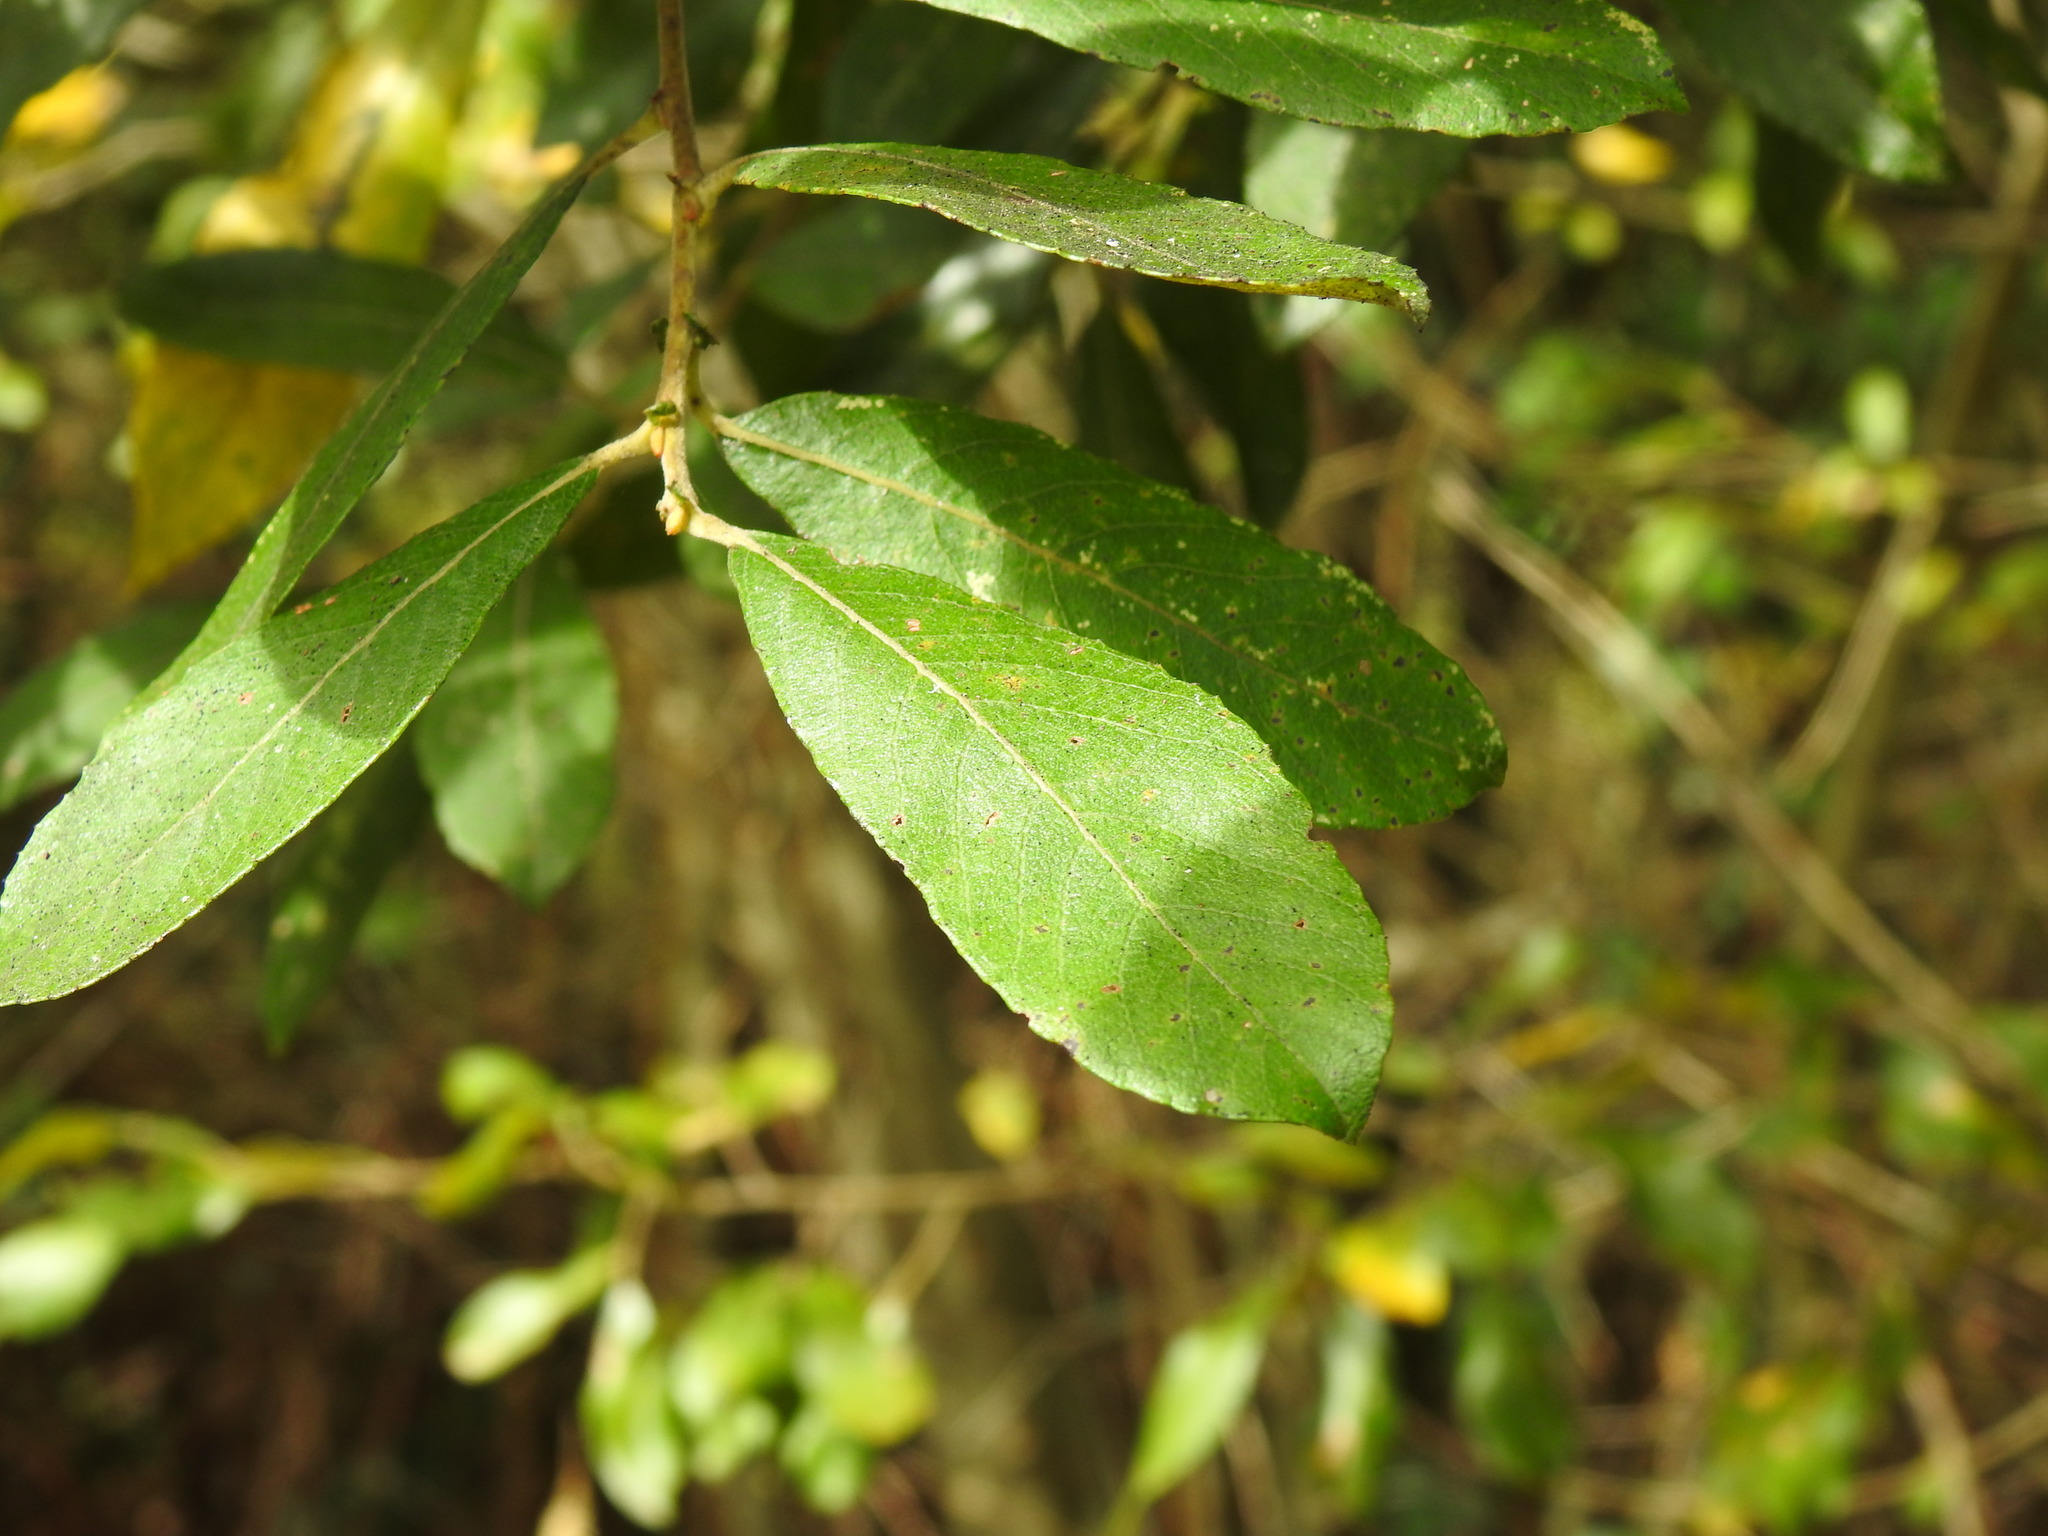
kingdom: Plantae
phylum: Tracheophyta
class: Magnoliopsida
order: Malpighiales
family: Salicaceae
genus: Salix
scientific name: Salix atrocinerea
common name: Rusty willow
